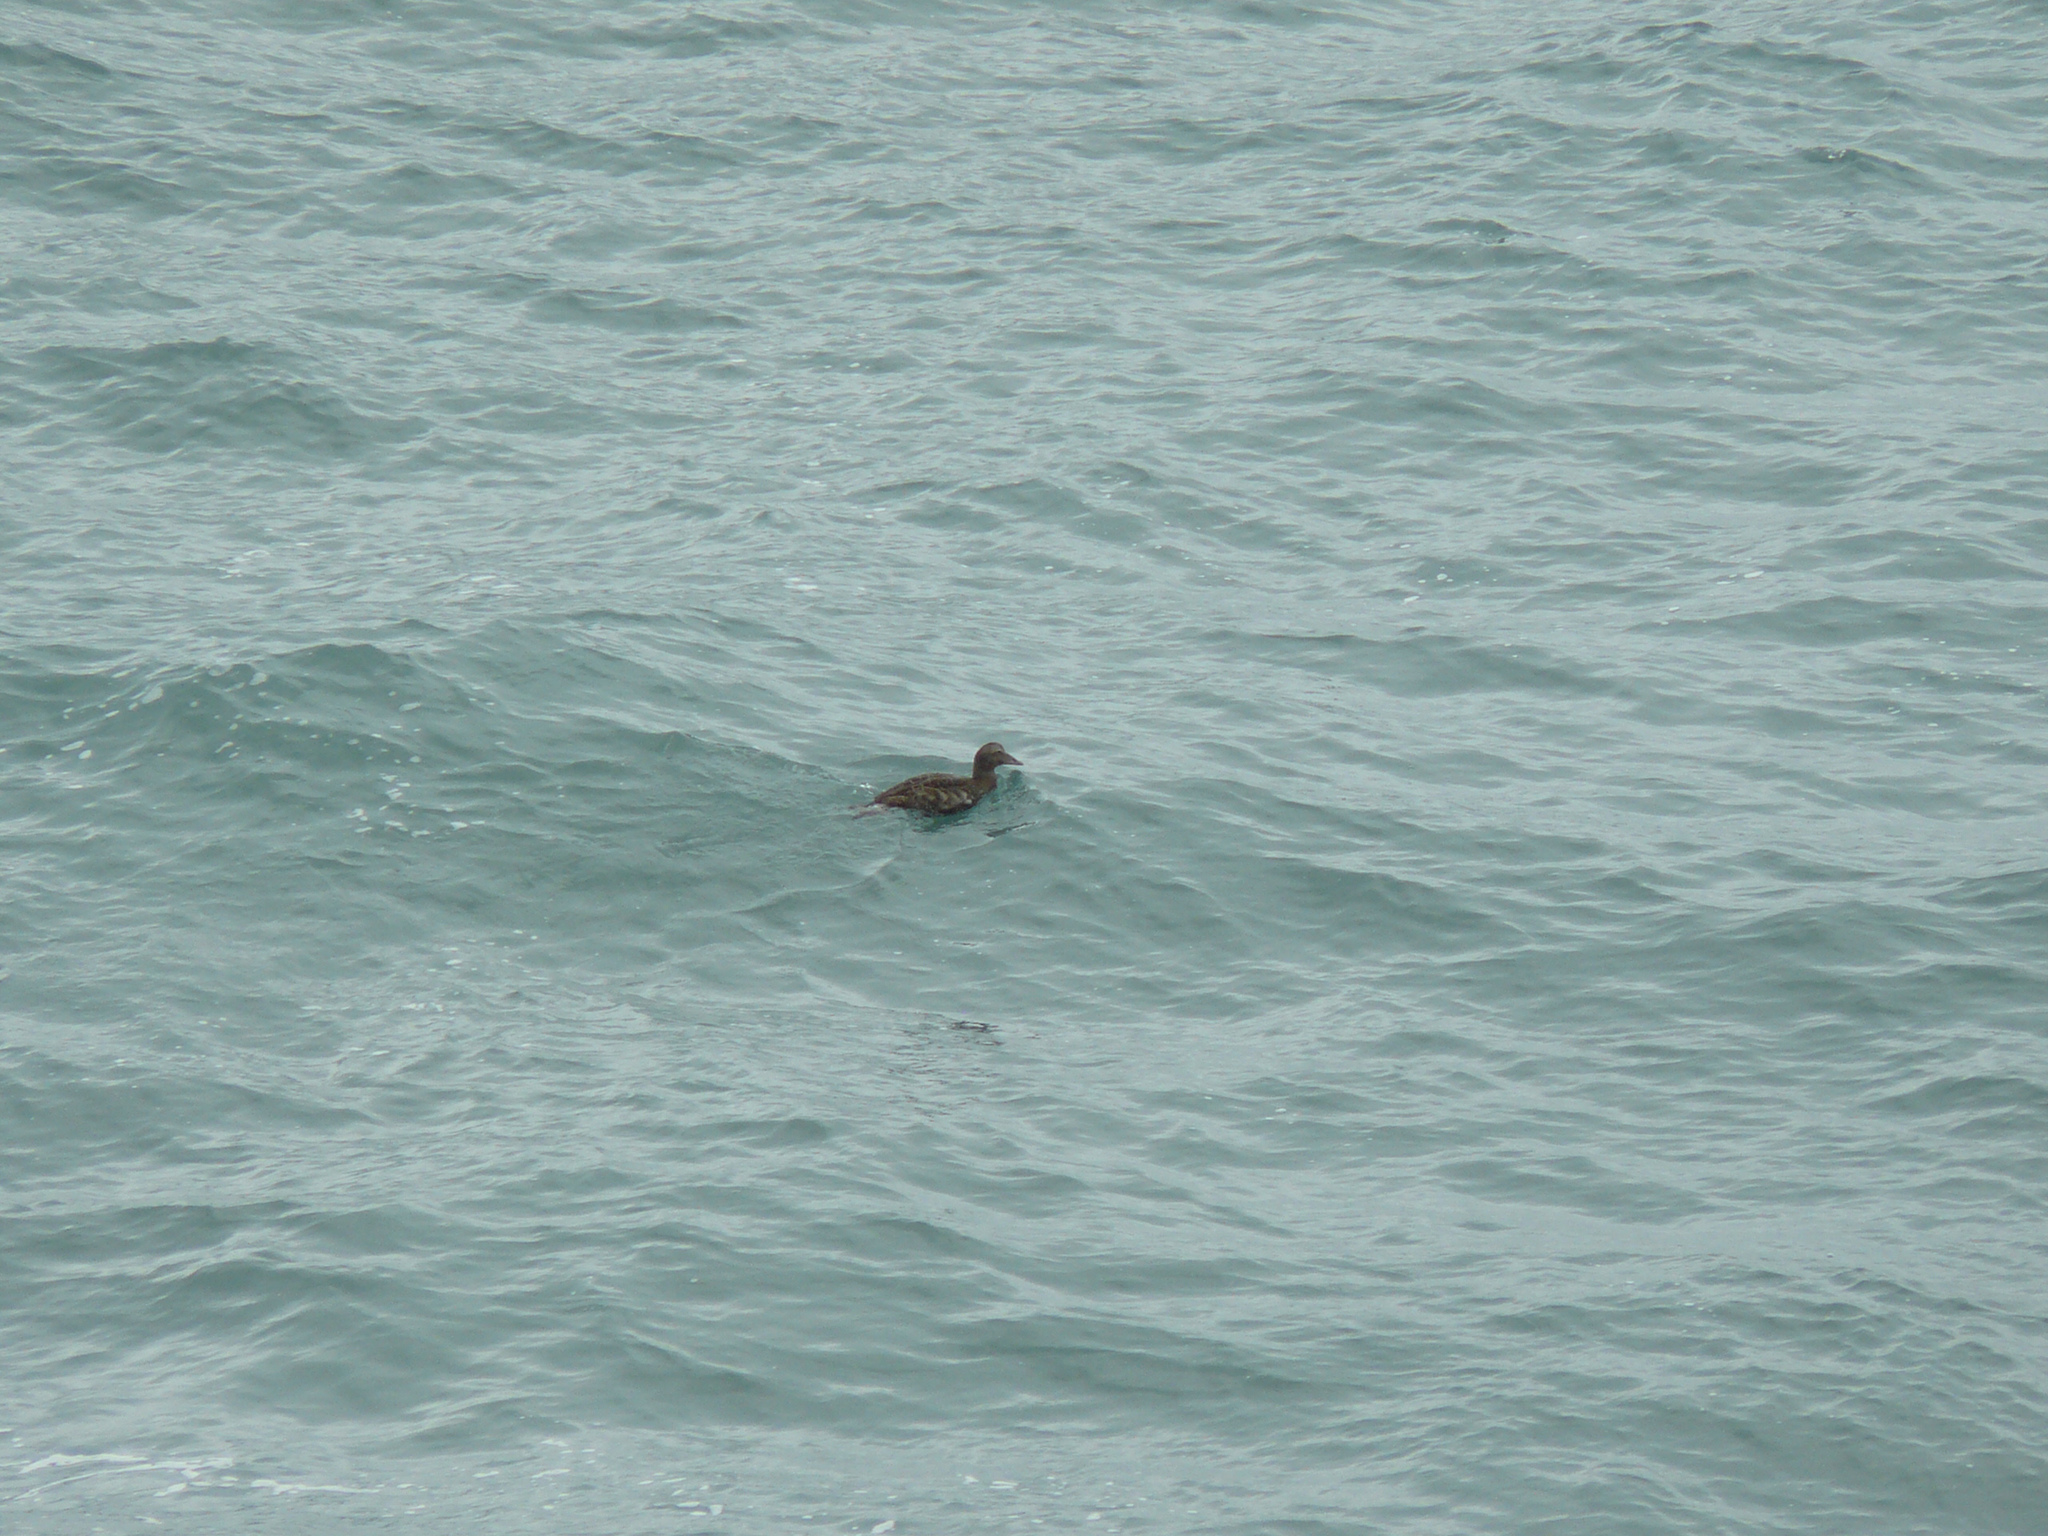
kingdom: Animalia
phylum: Chordata
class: Aves
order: Anseriformes
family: Anatidae
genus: Somateria
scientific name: Somateria mollissima
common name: Common eider
